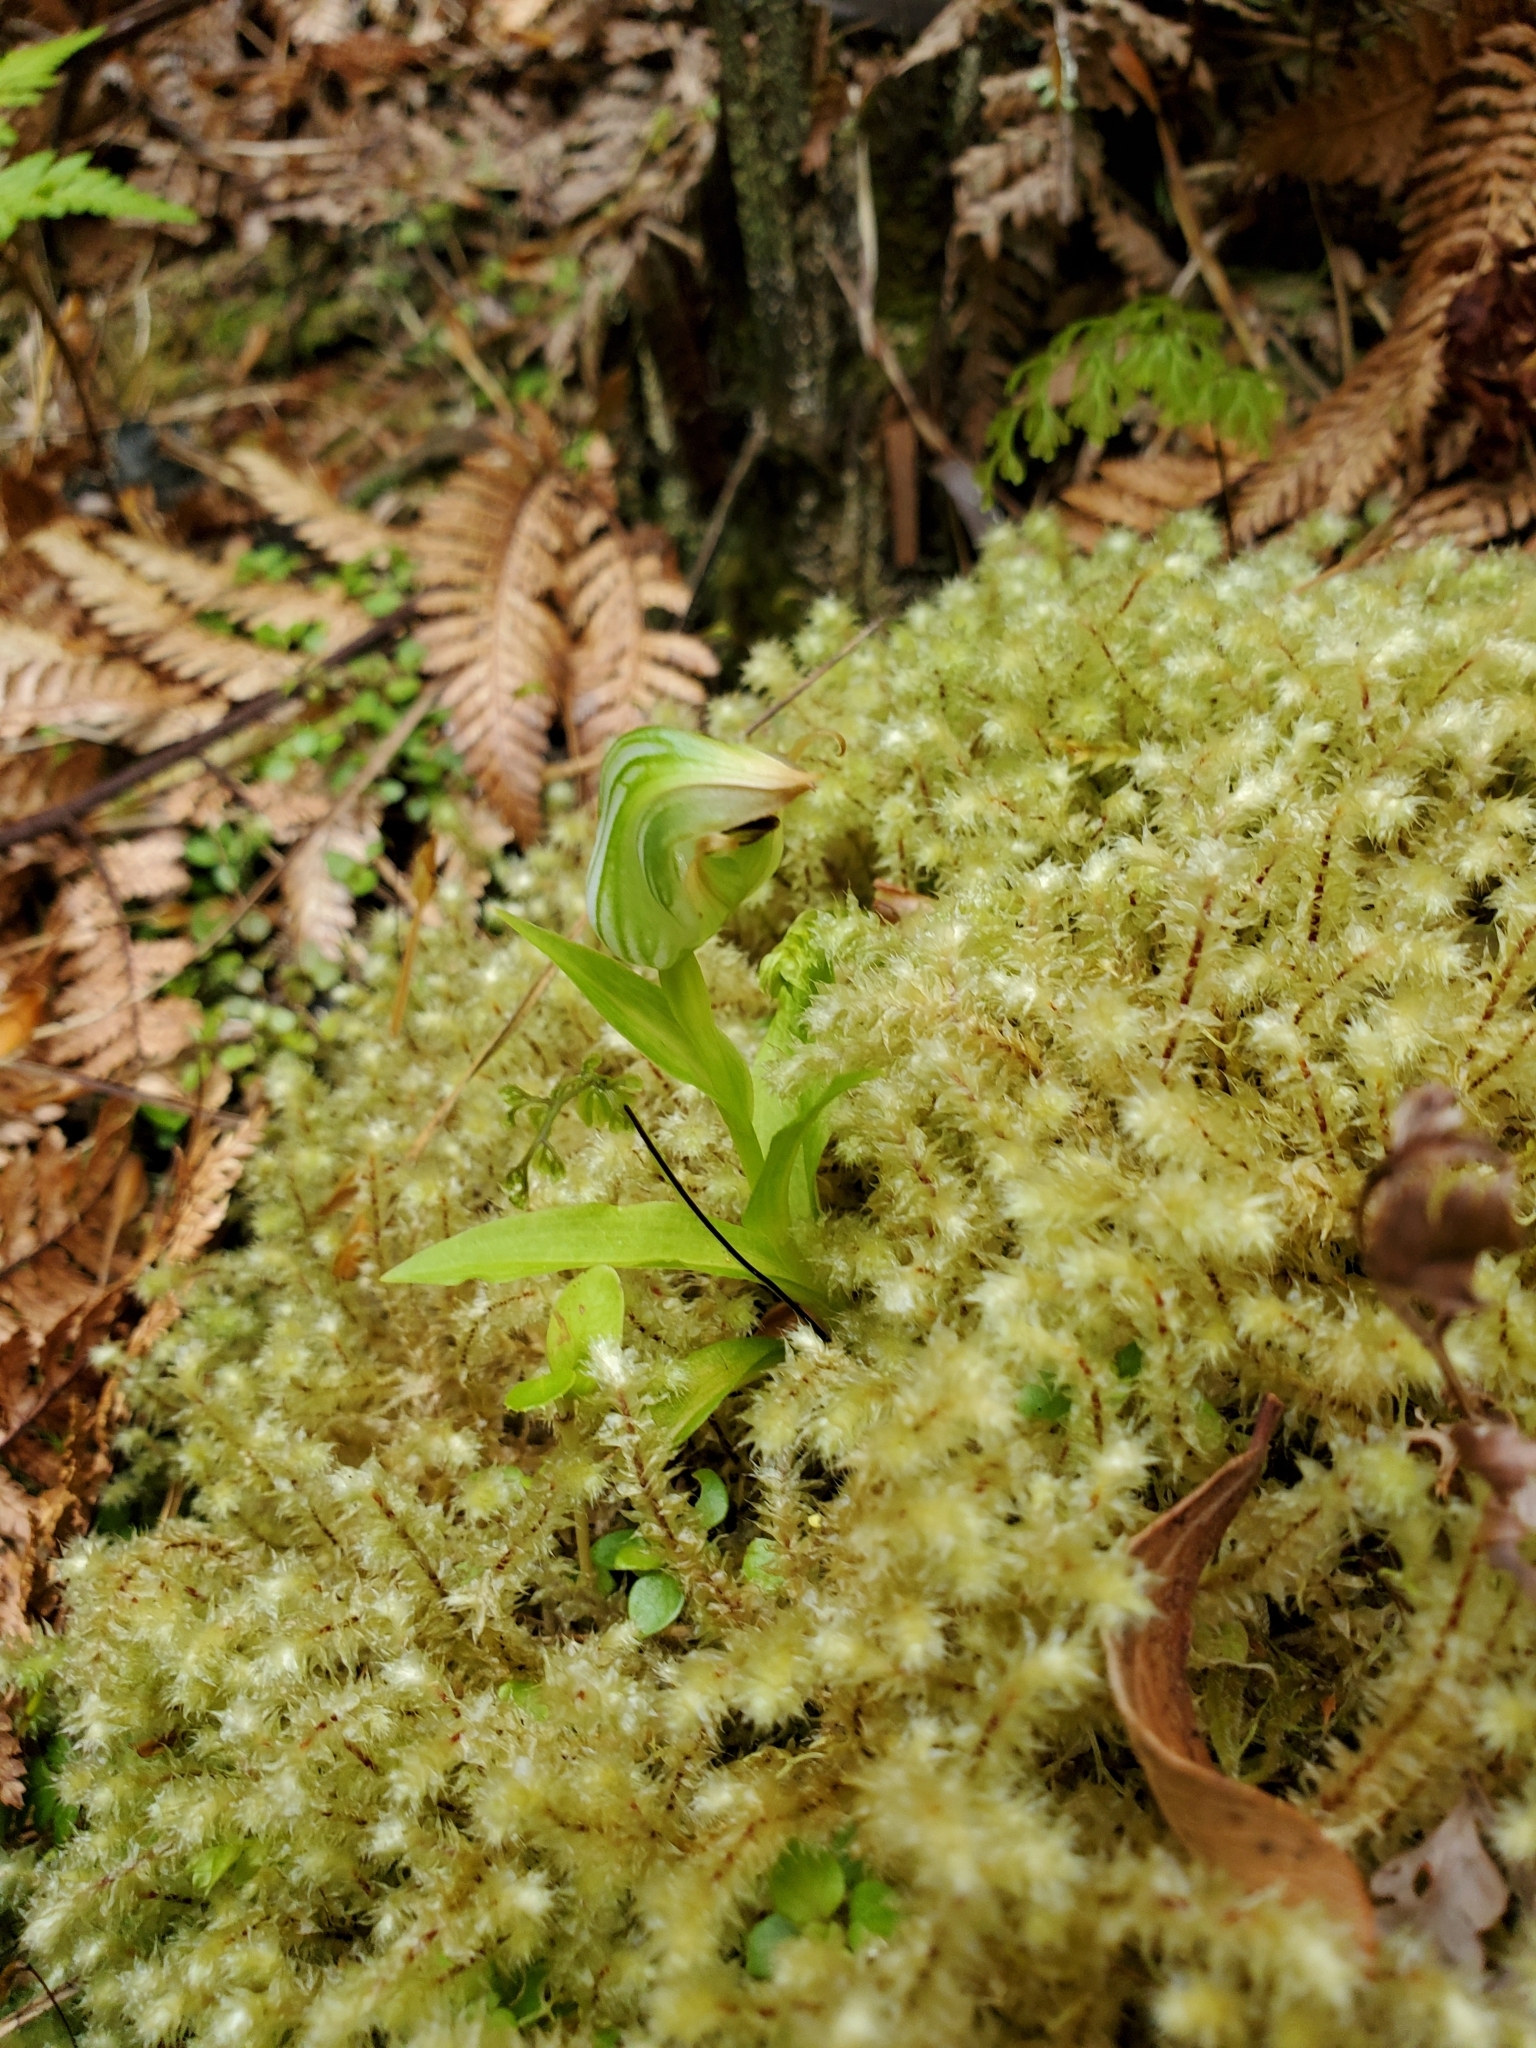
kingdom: Plantae
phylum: Tracheophyta
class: Liliopsida
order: Asparagales
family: Orchidaceae
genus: Pterostylis
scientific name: Pterostylis silvicultrix
